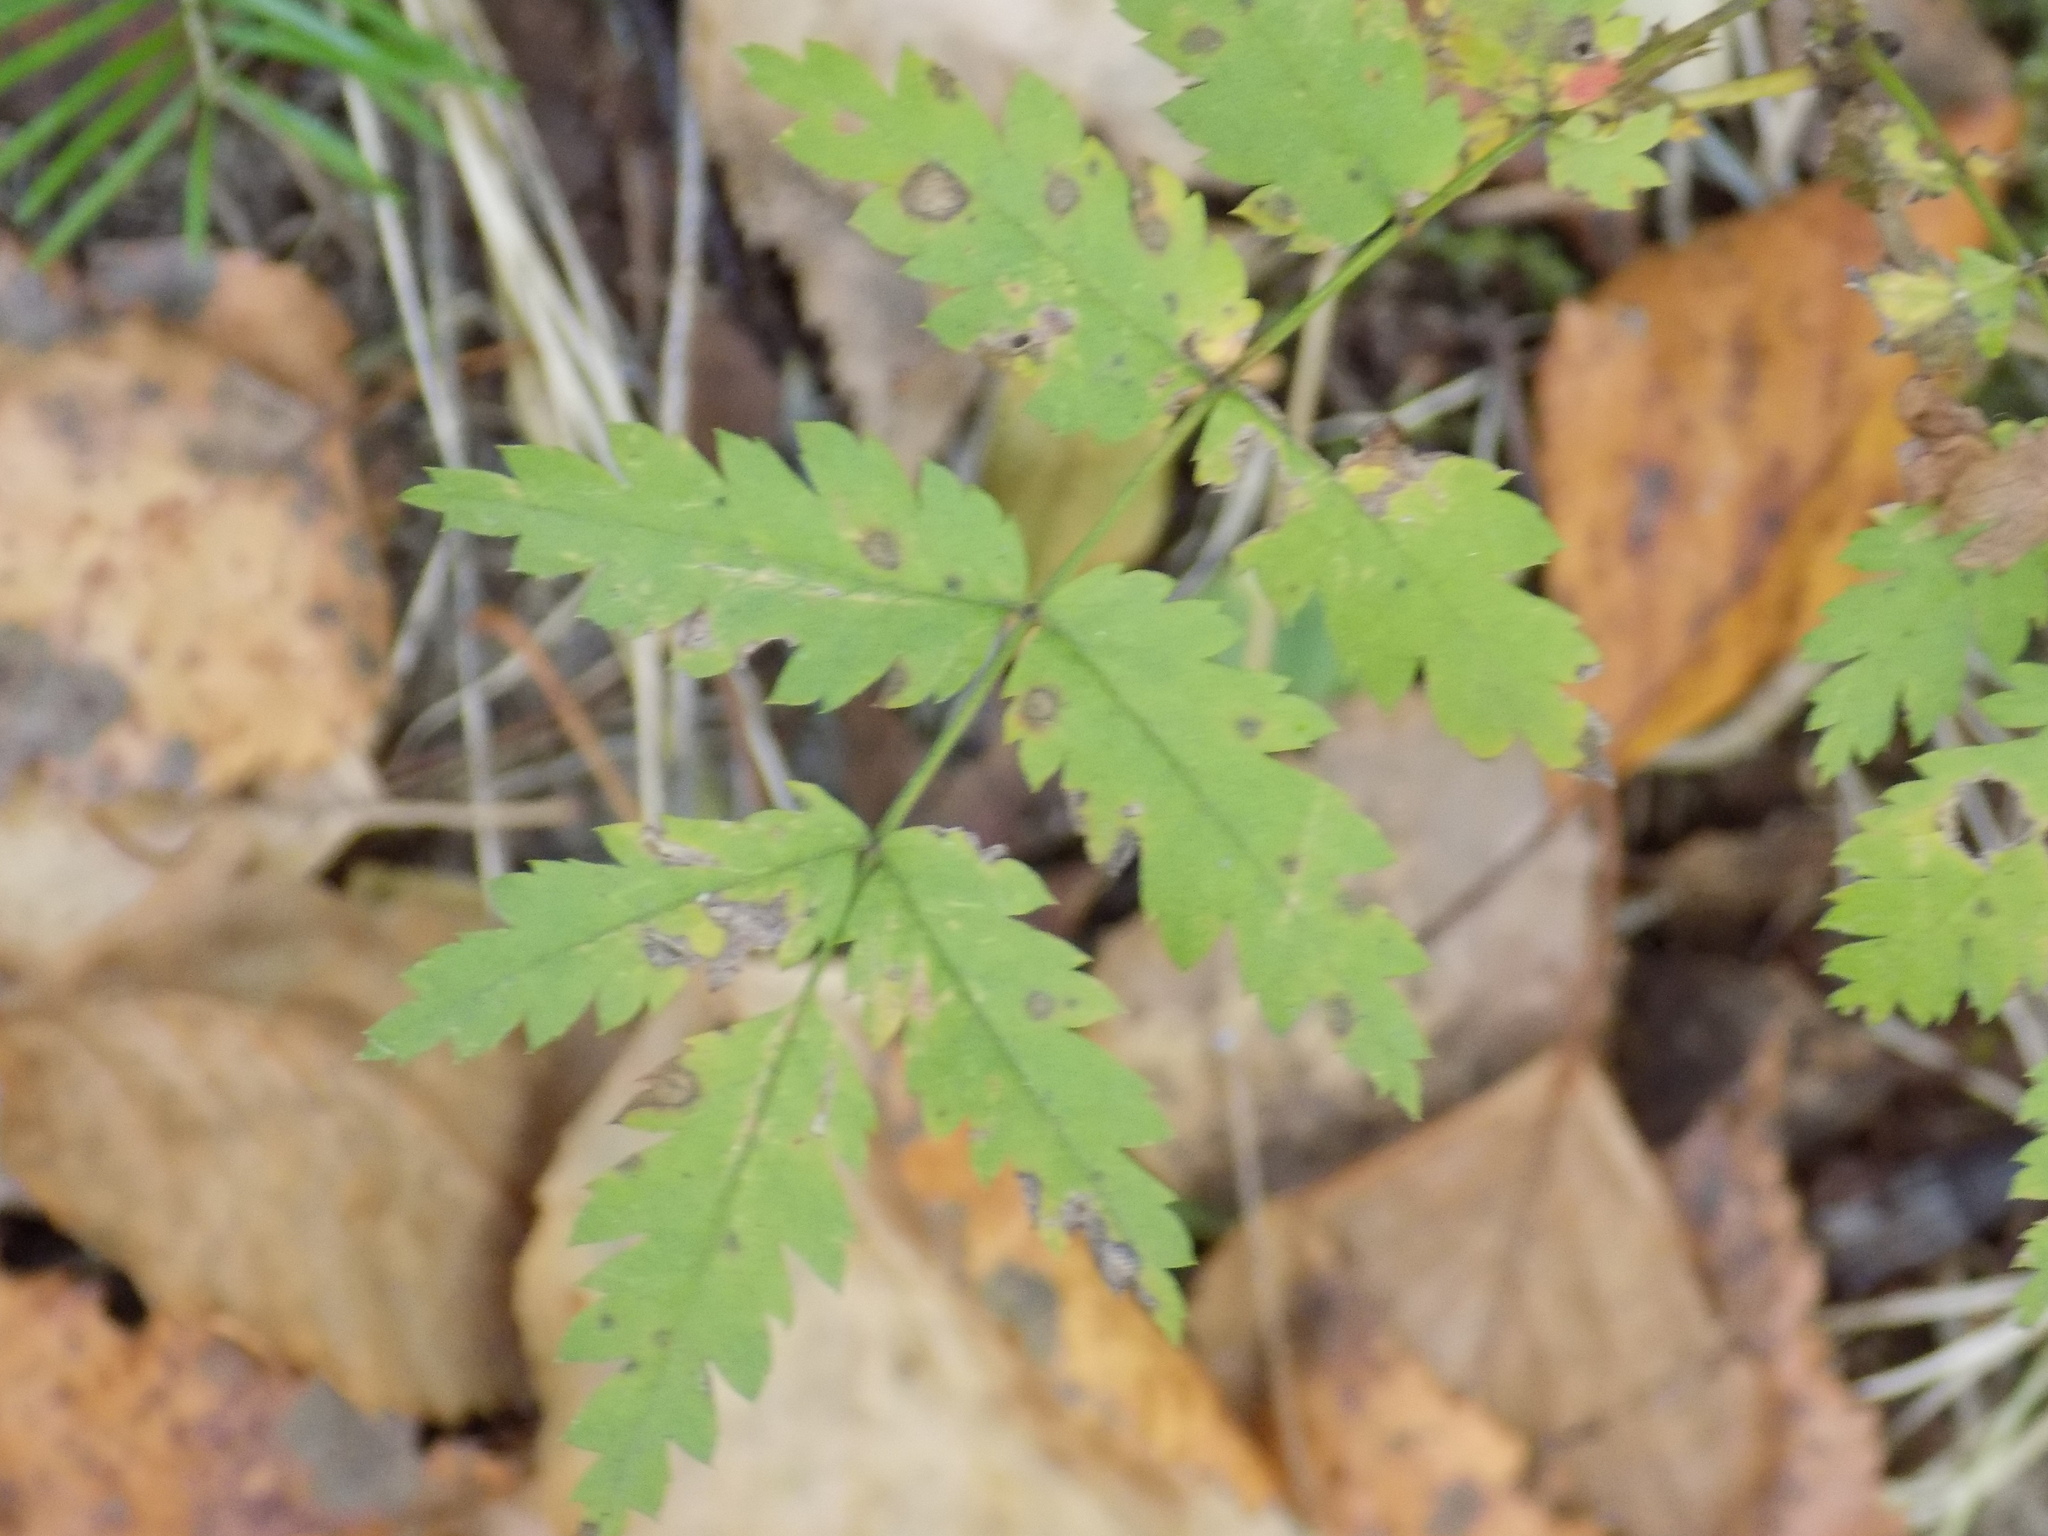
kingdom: Plantae
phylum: Tracheophyta
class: Magnoliopsida
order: Rosales
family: Rosaceae
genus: Sorbus
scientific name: Sorbus aucuparia
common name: Rowan
